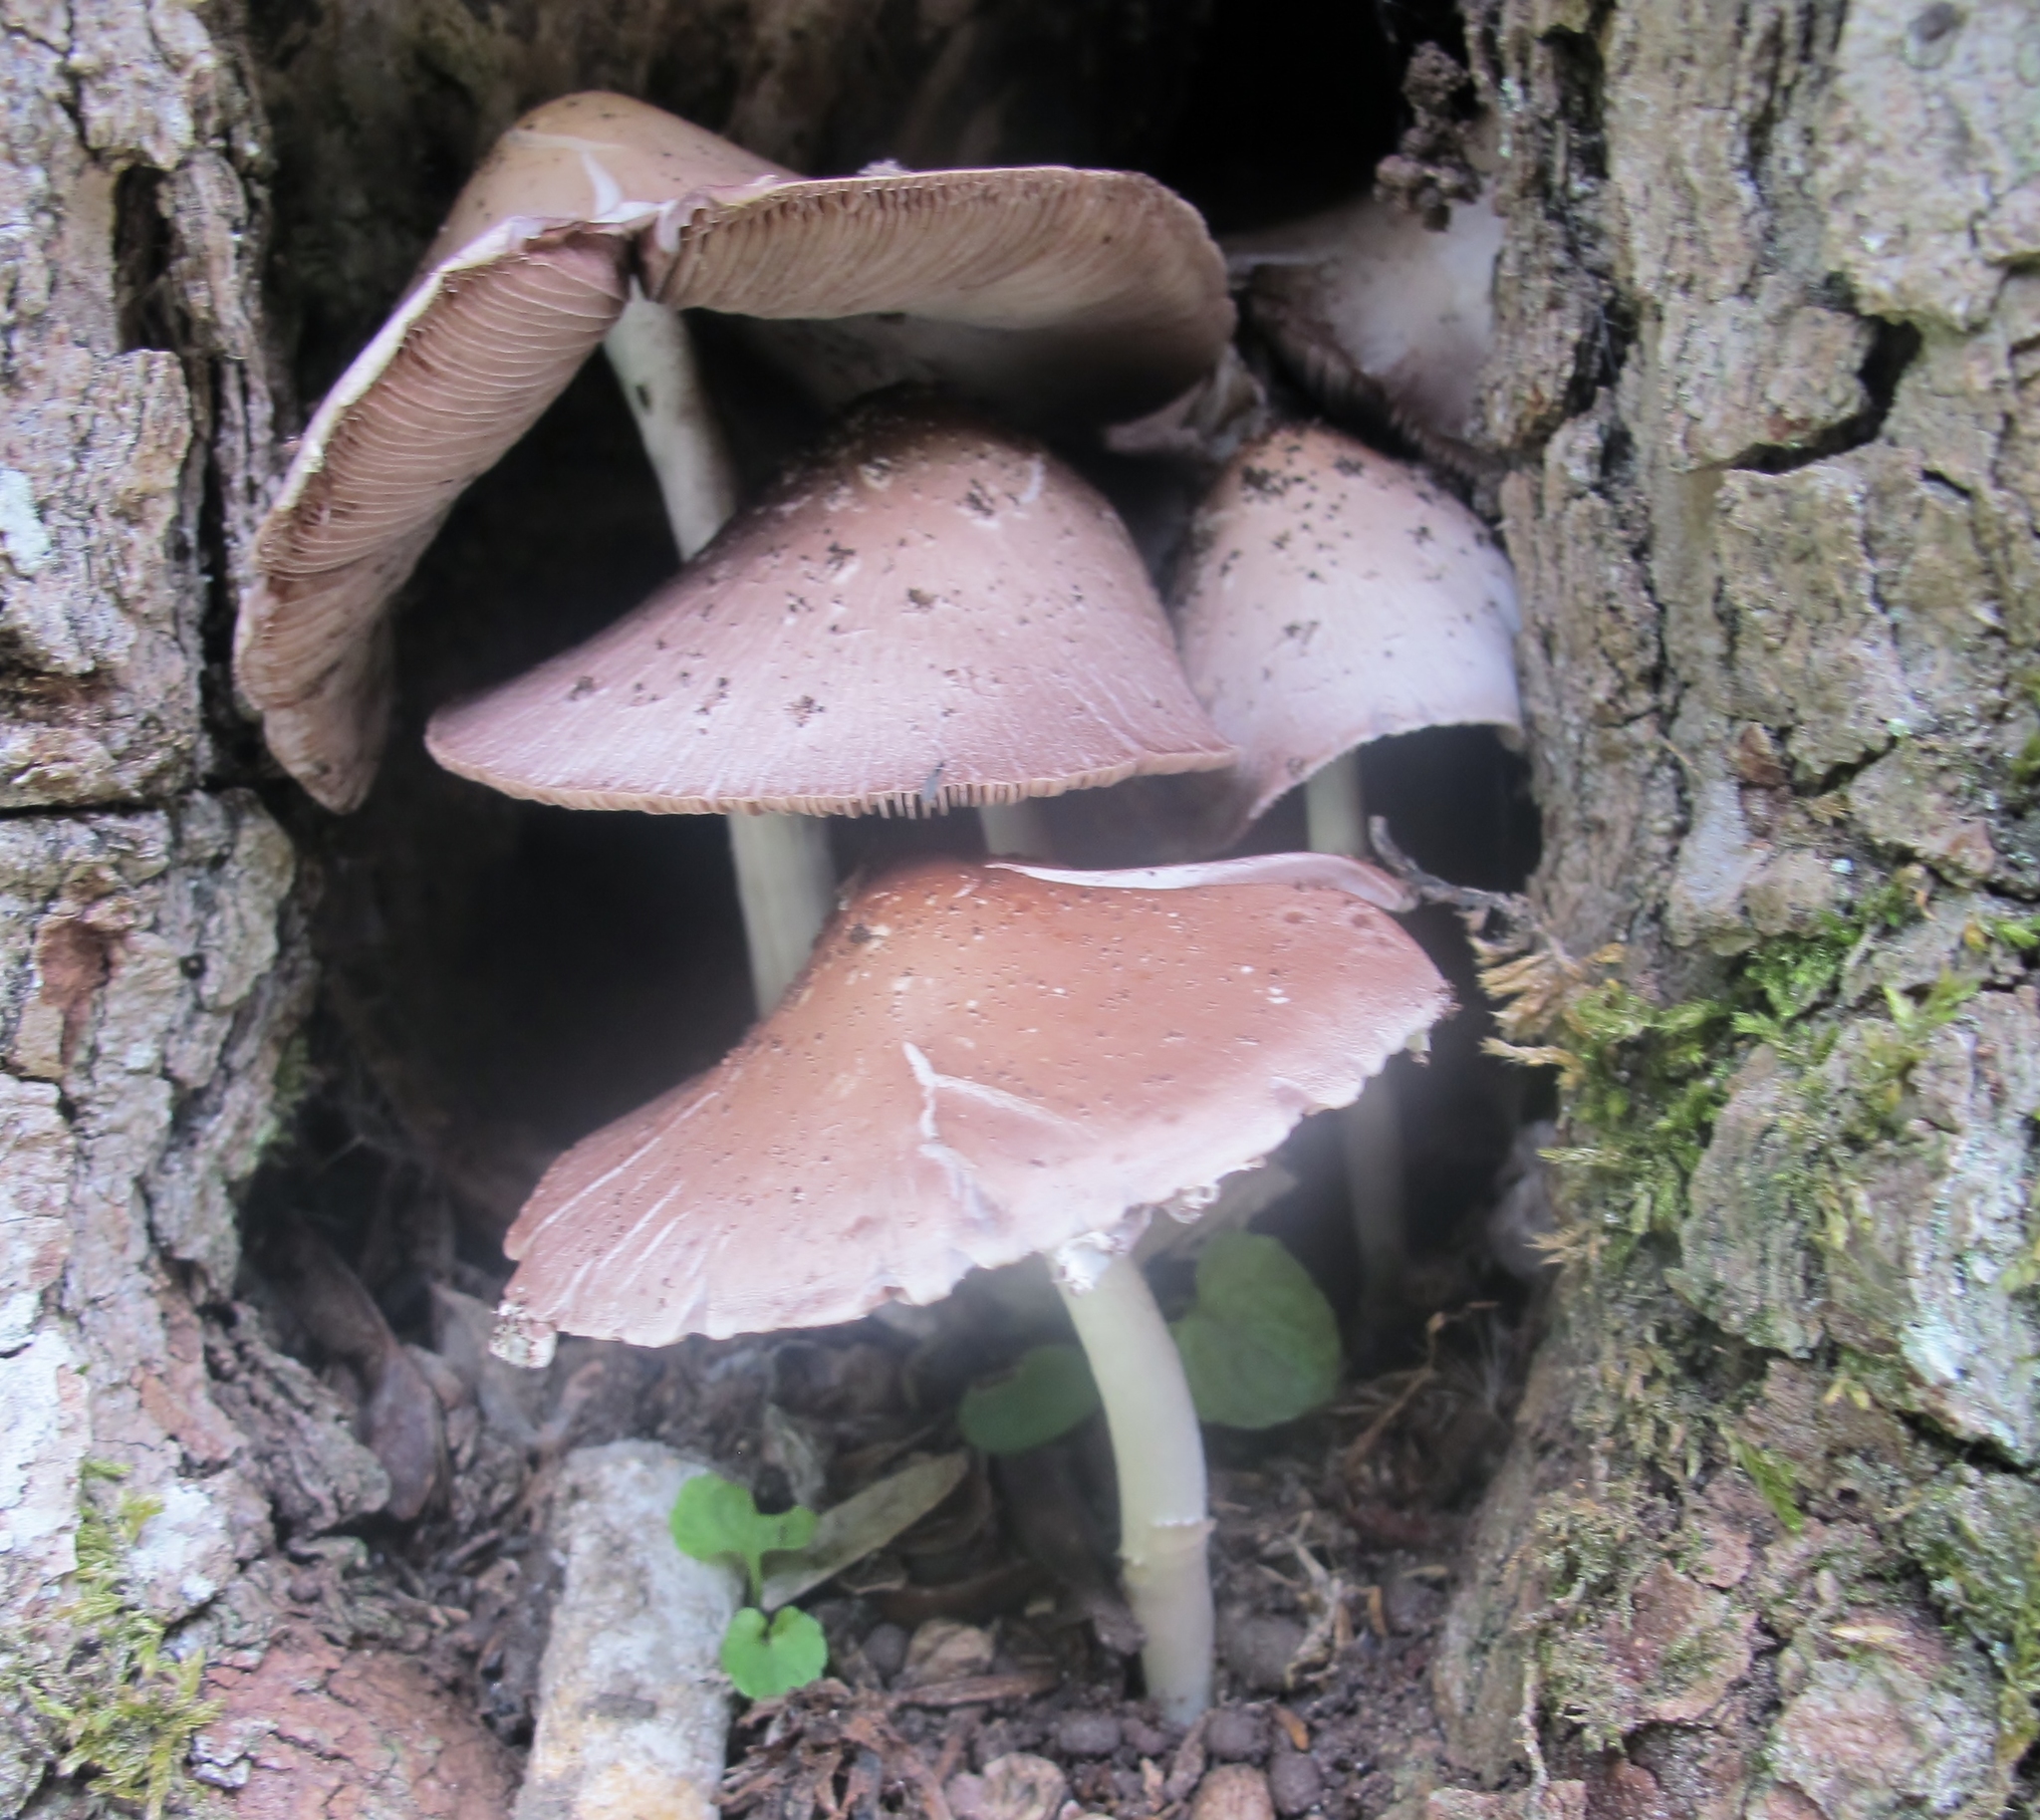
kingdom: Fungi
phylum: Basidiomycota
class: Agaricomycetes
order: Agaricales
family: Psathyrellaceae
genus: Candolleomyces
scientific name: Candolleomyces candolleanus
